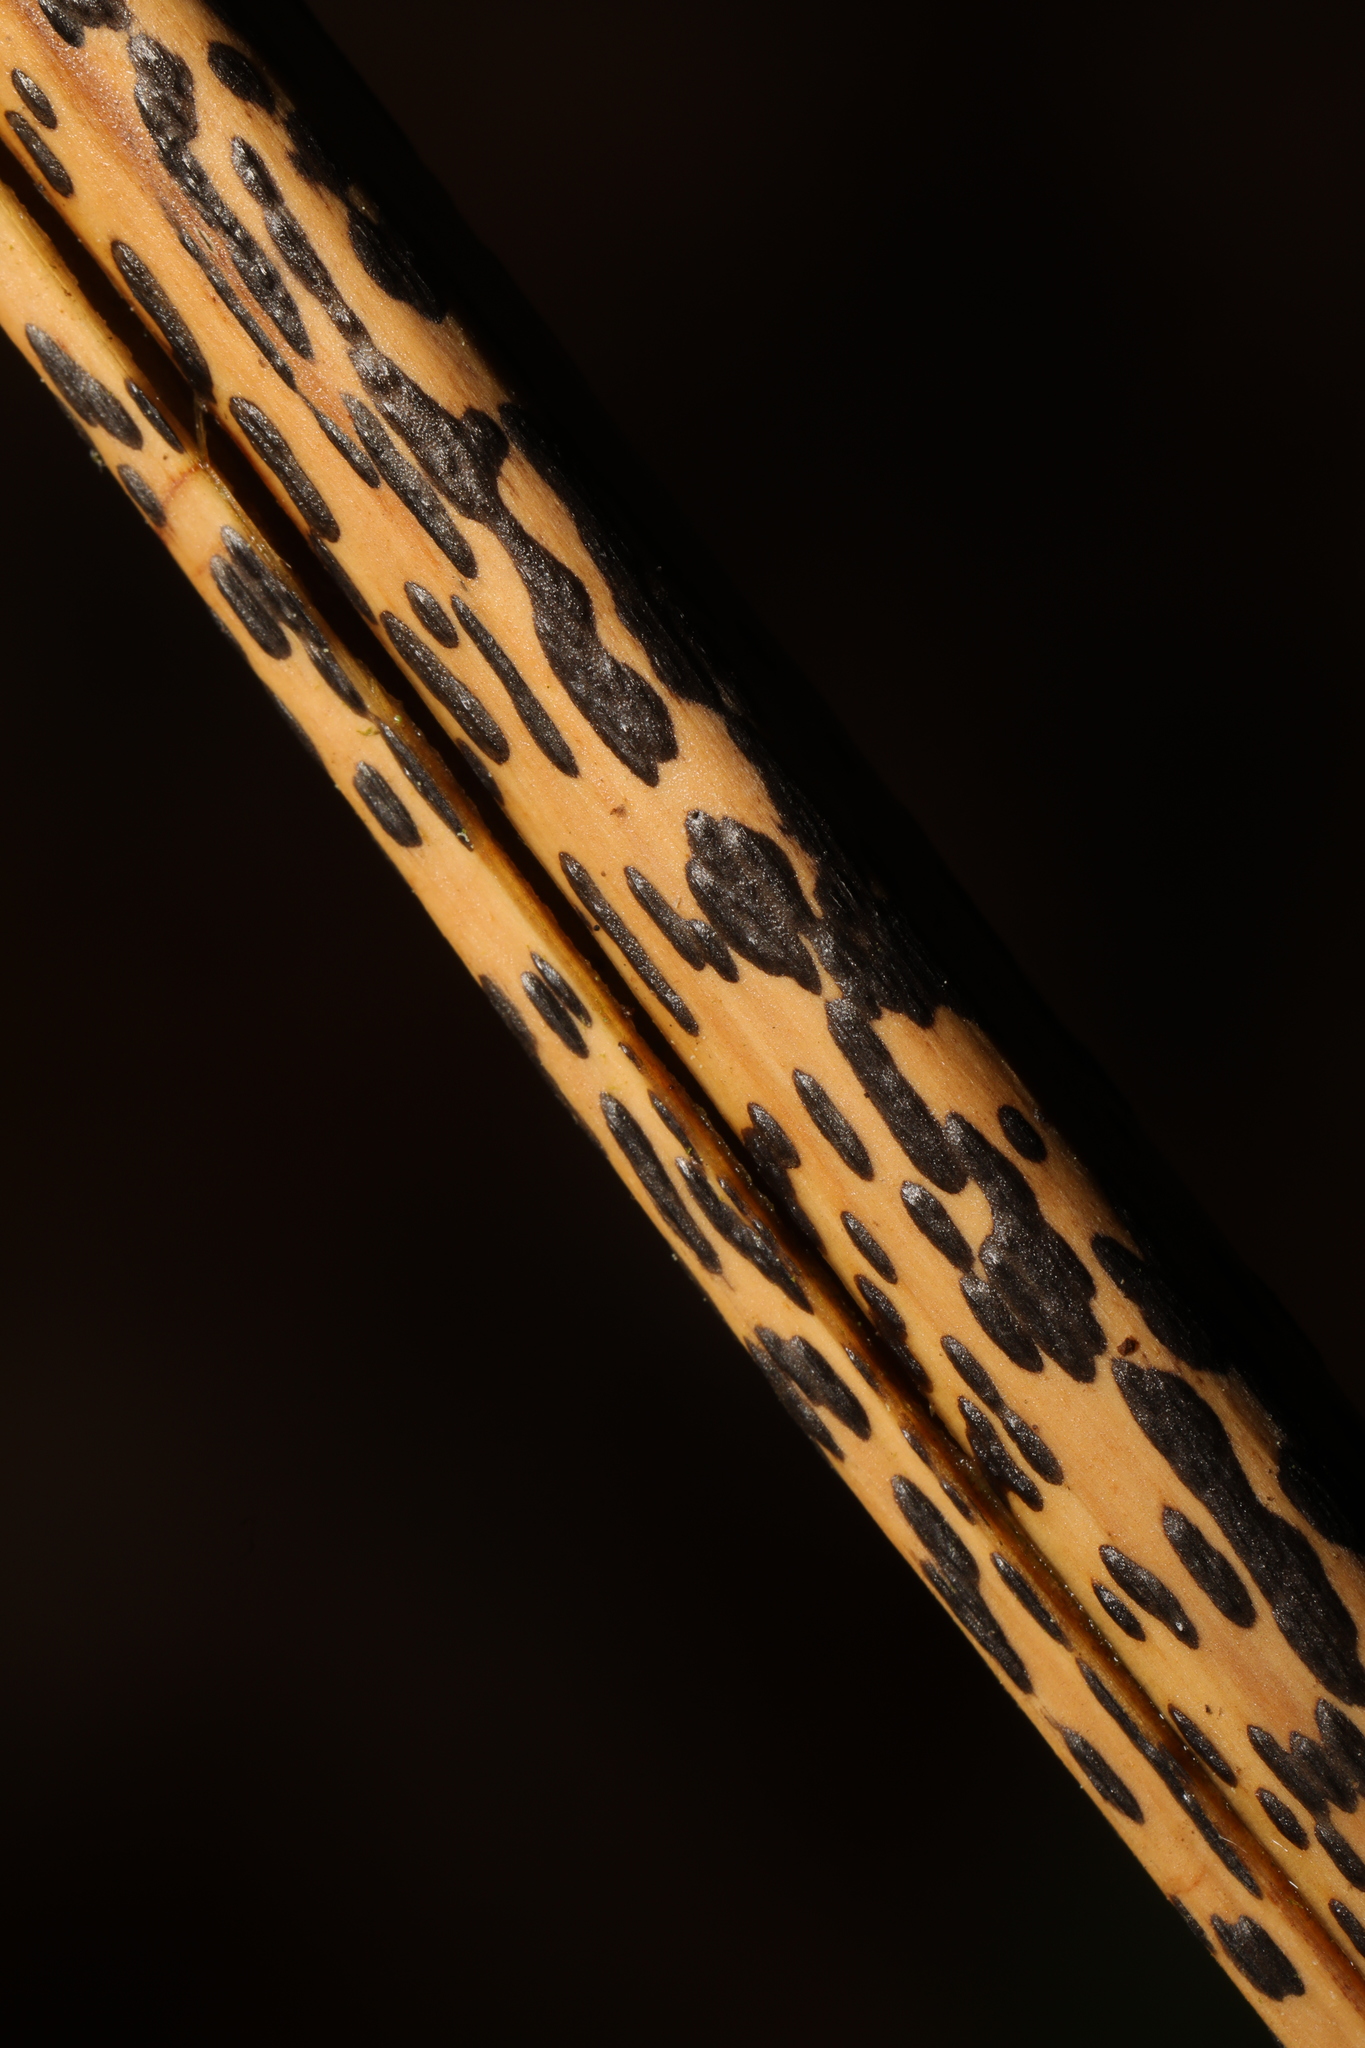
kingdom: Fungi
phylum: Ascomycota
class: Dothideomycetes
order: Pleosporales
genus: Rhopographus
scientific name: Rhopographus filicinus
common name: Bracken map
